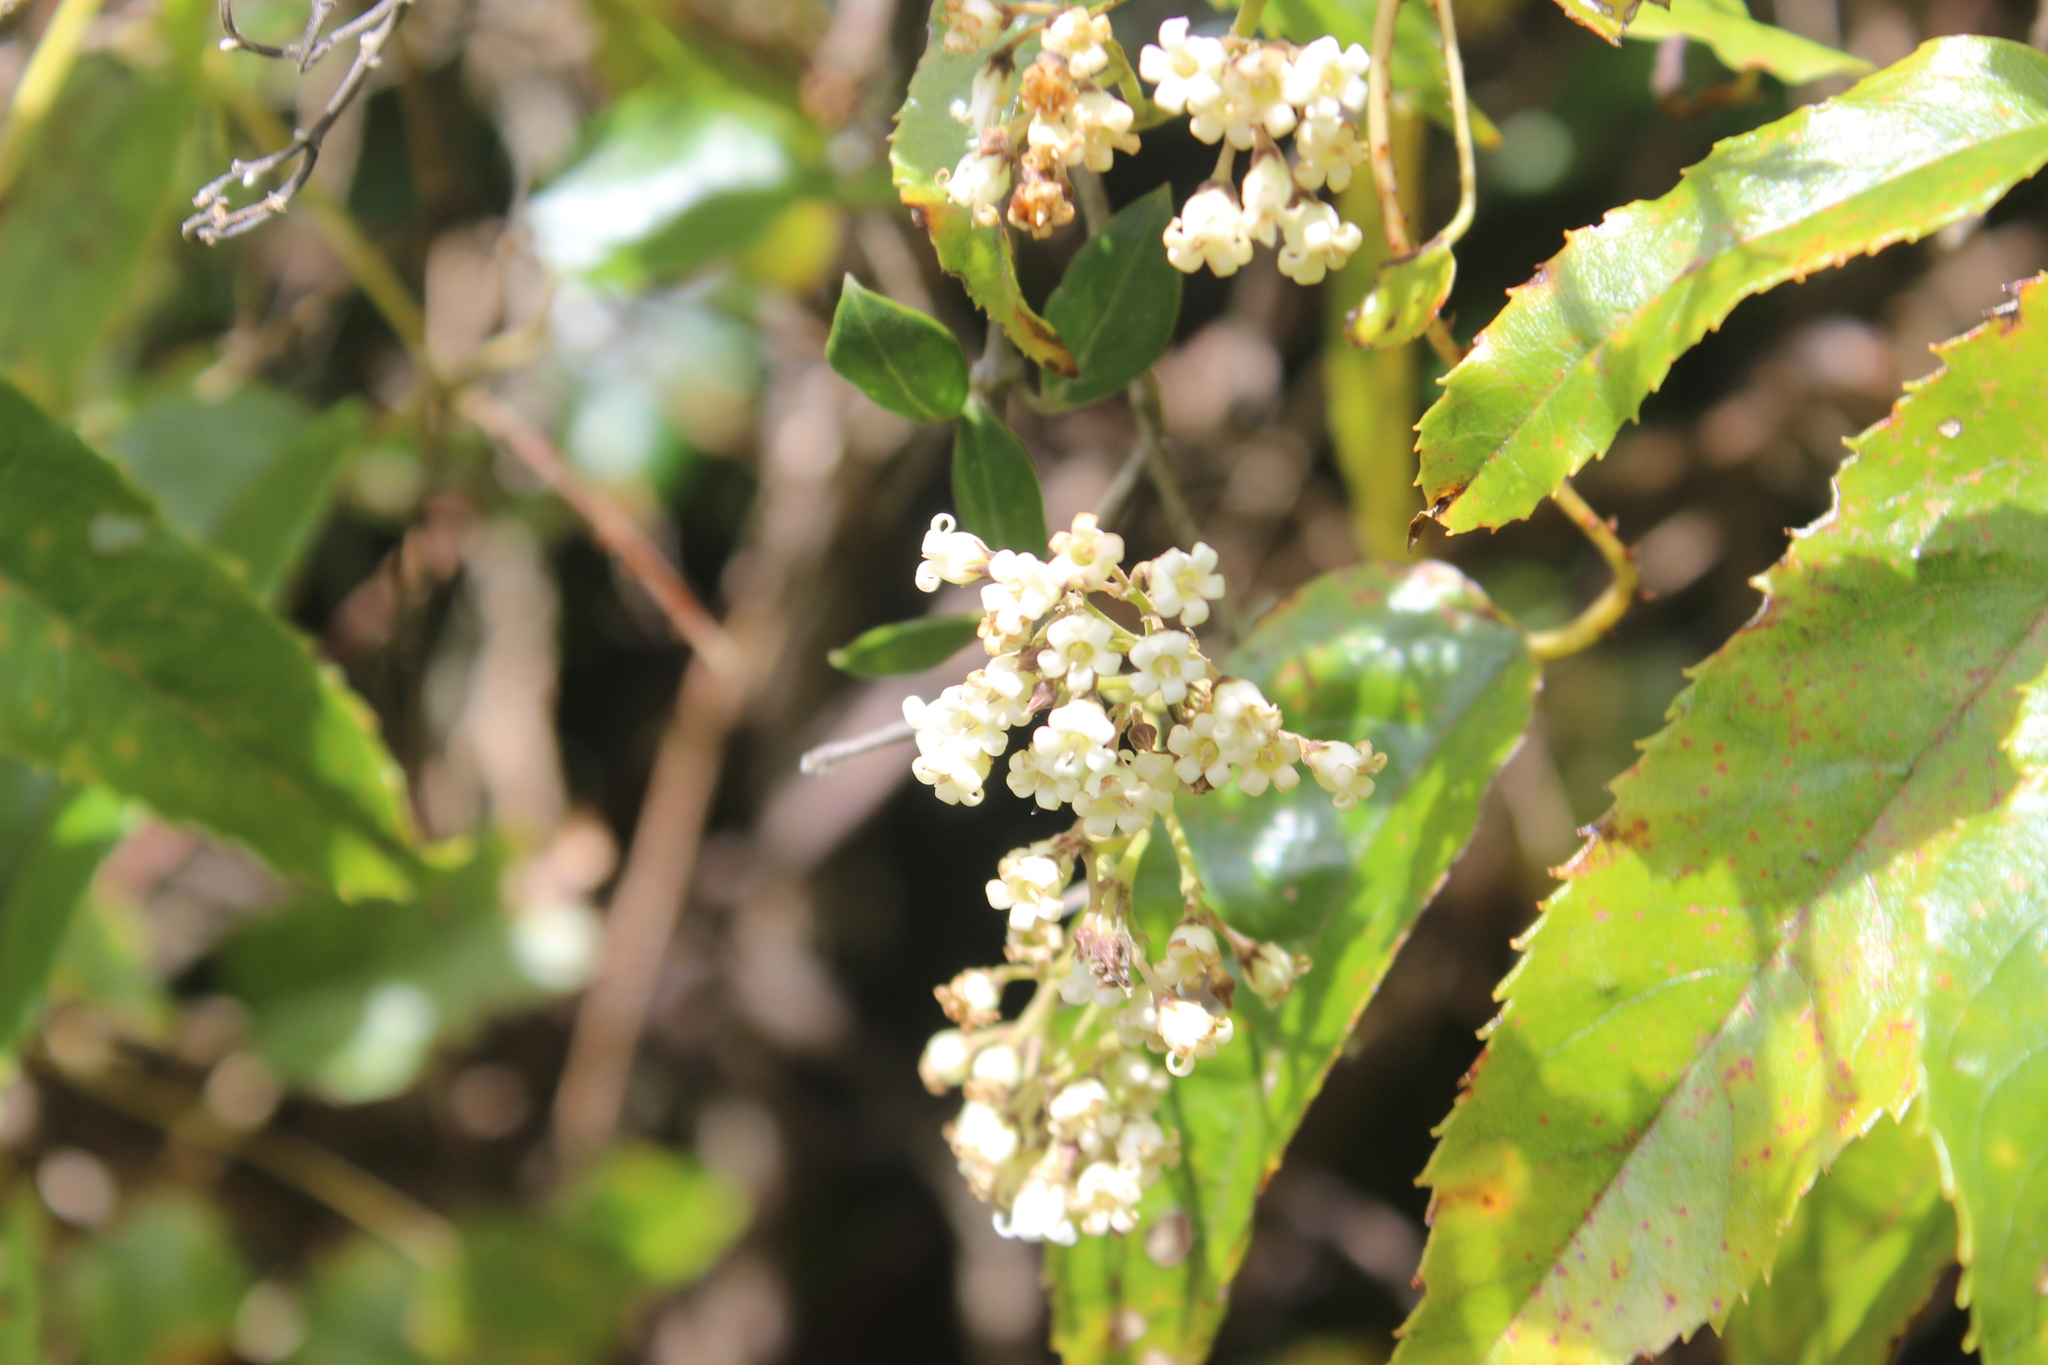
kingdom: Plantae
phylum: Tracheophyta
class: Magnoliopsida
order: Gentianales
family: Apocynaceae
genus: Parsonsia
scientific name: Parsonsia heterophylla
